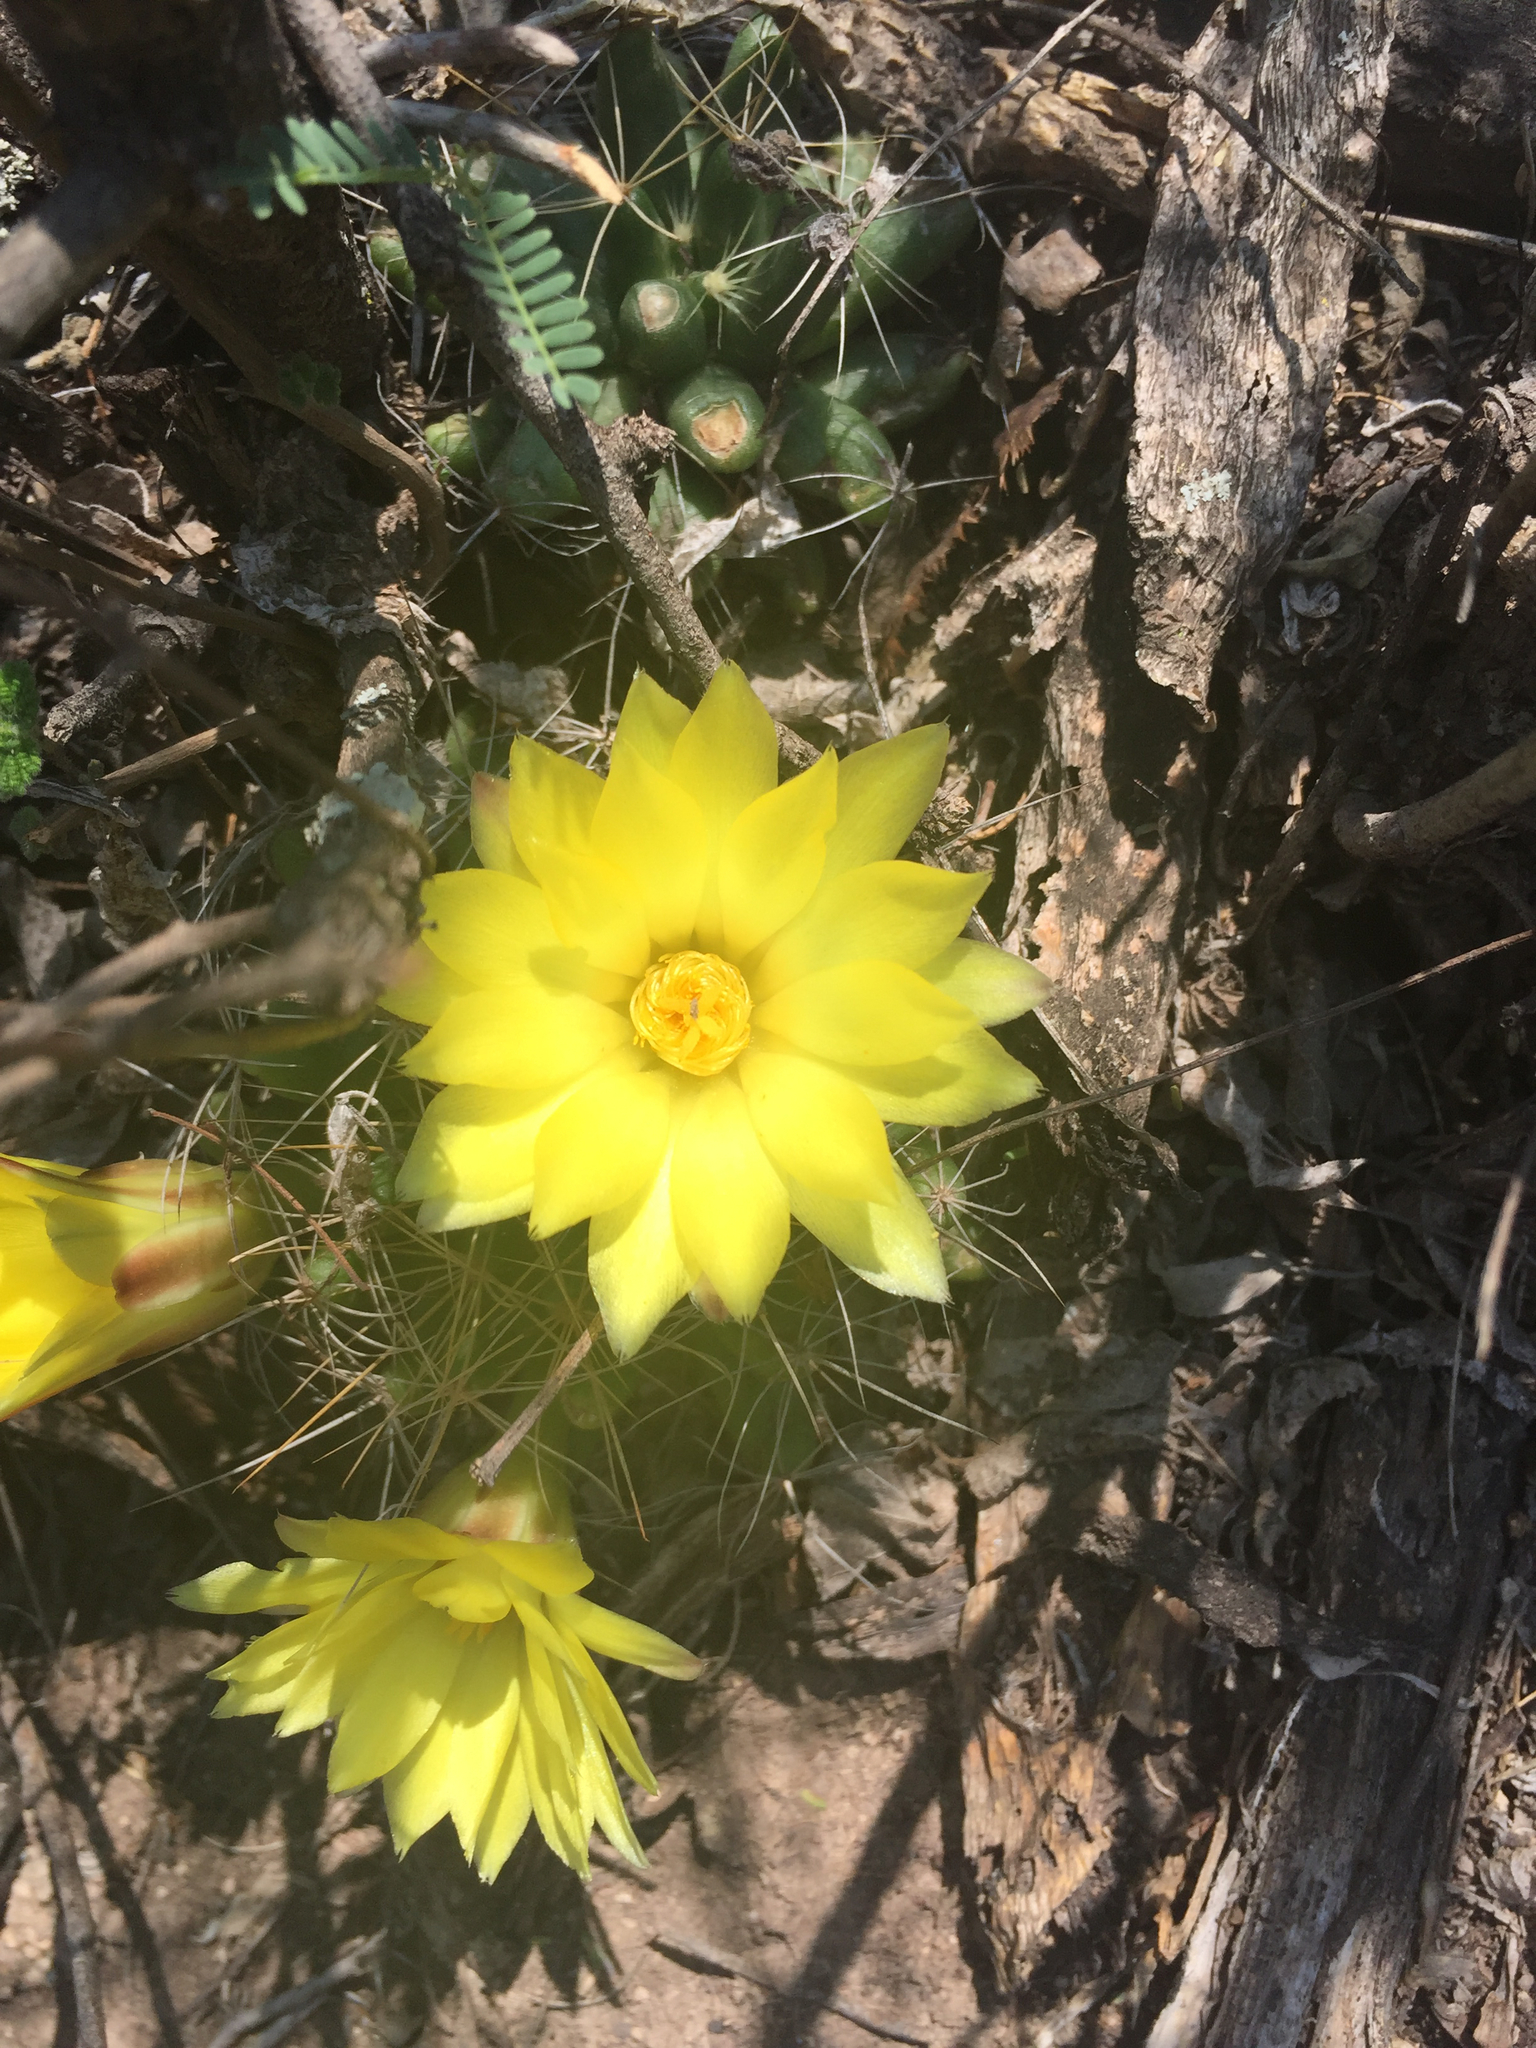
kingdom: Plantae
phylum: Tracheophyta
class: Magnoliopsida
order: Caryophyllales
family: Cactaceae
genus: Mammillaria
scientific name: Mammillaria longimamma
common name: Pineapple cactus
